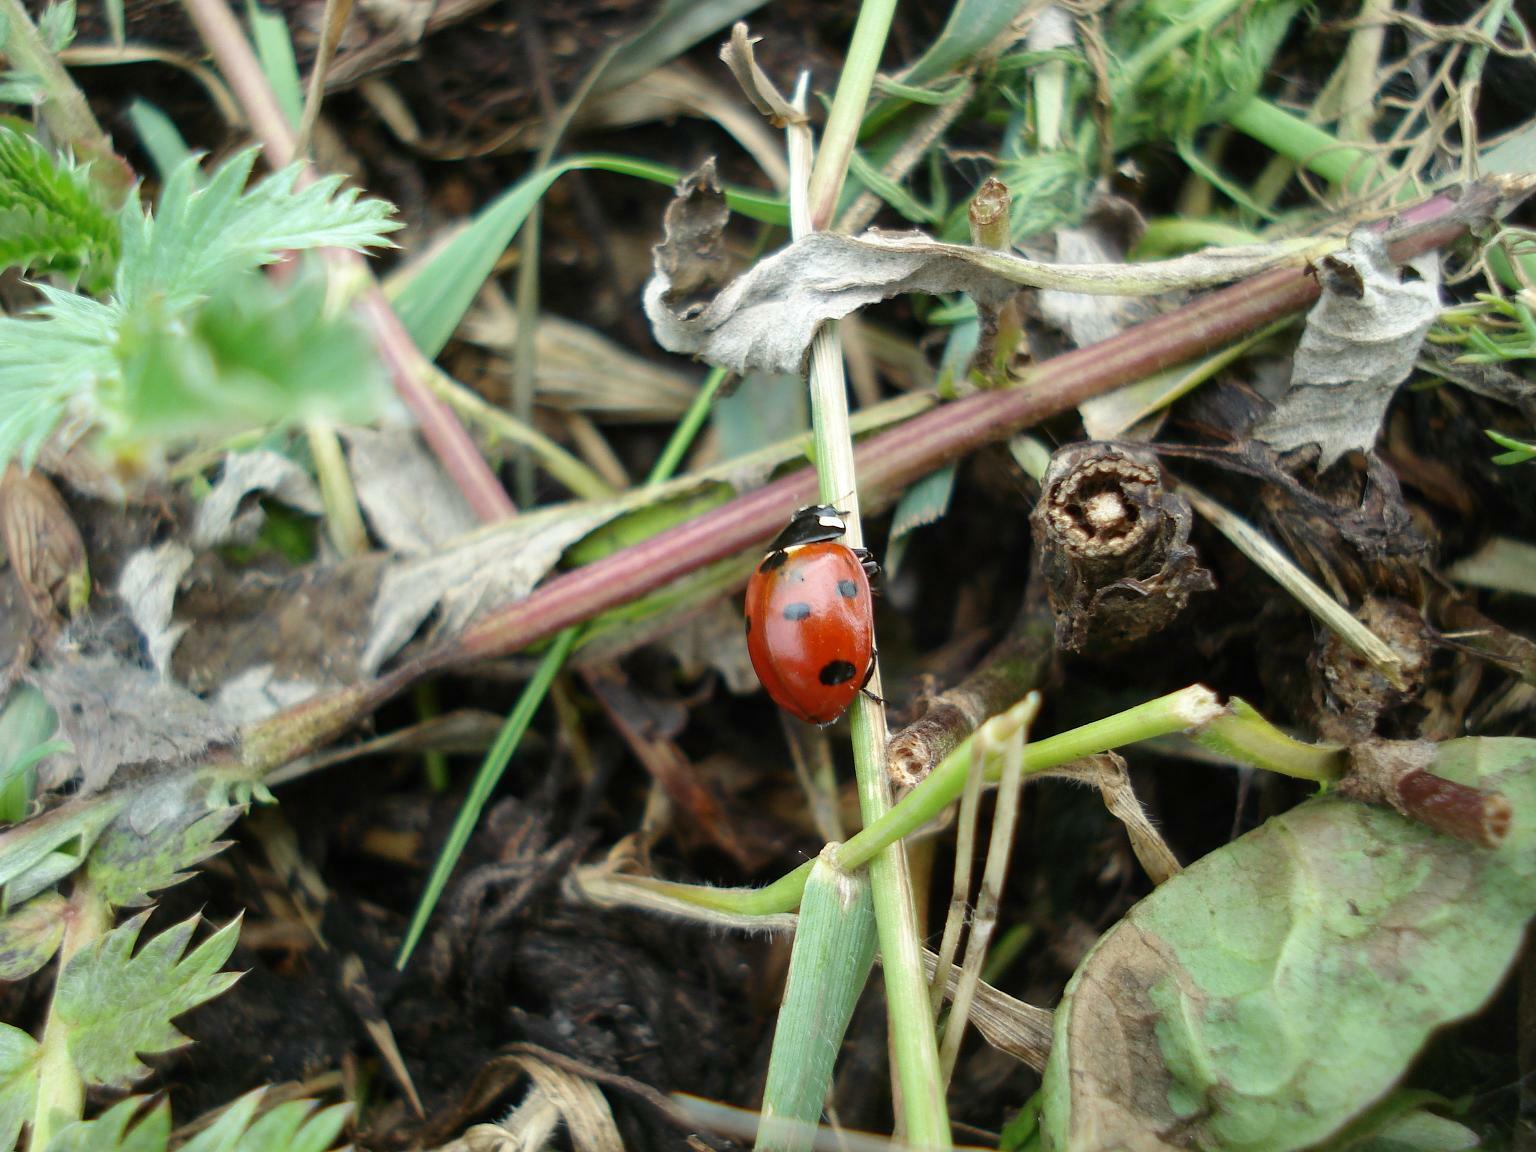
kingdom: Animalia
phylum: Arthropoda
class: Insecta
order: Coleoptera
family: Coccinellidae
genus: Coccinella
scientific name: Coccinella septempunctata
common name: Sevenspotted lady beetle
